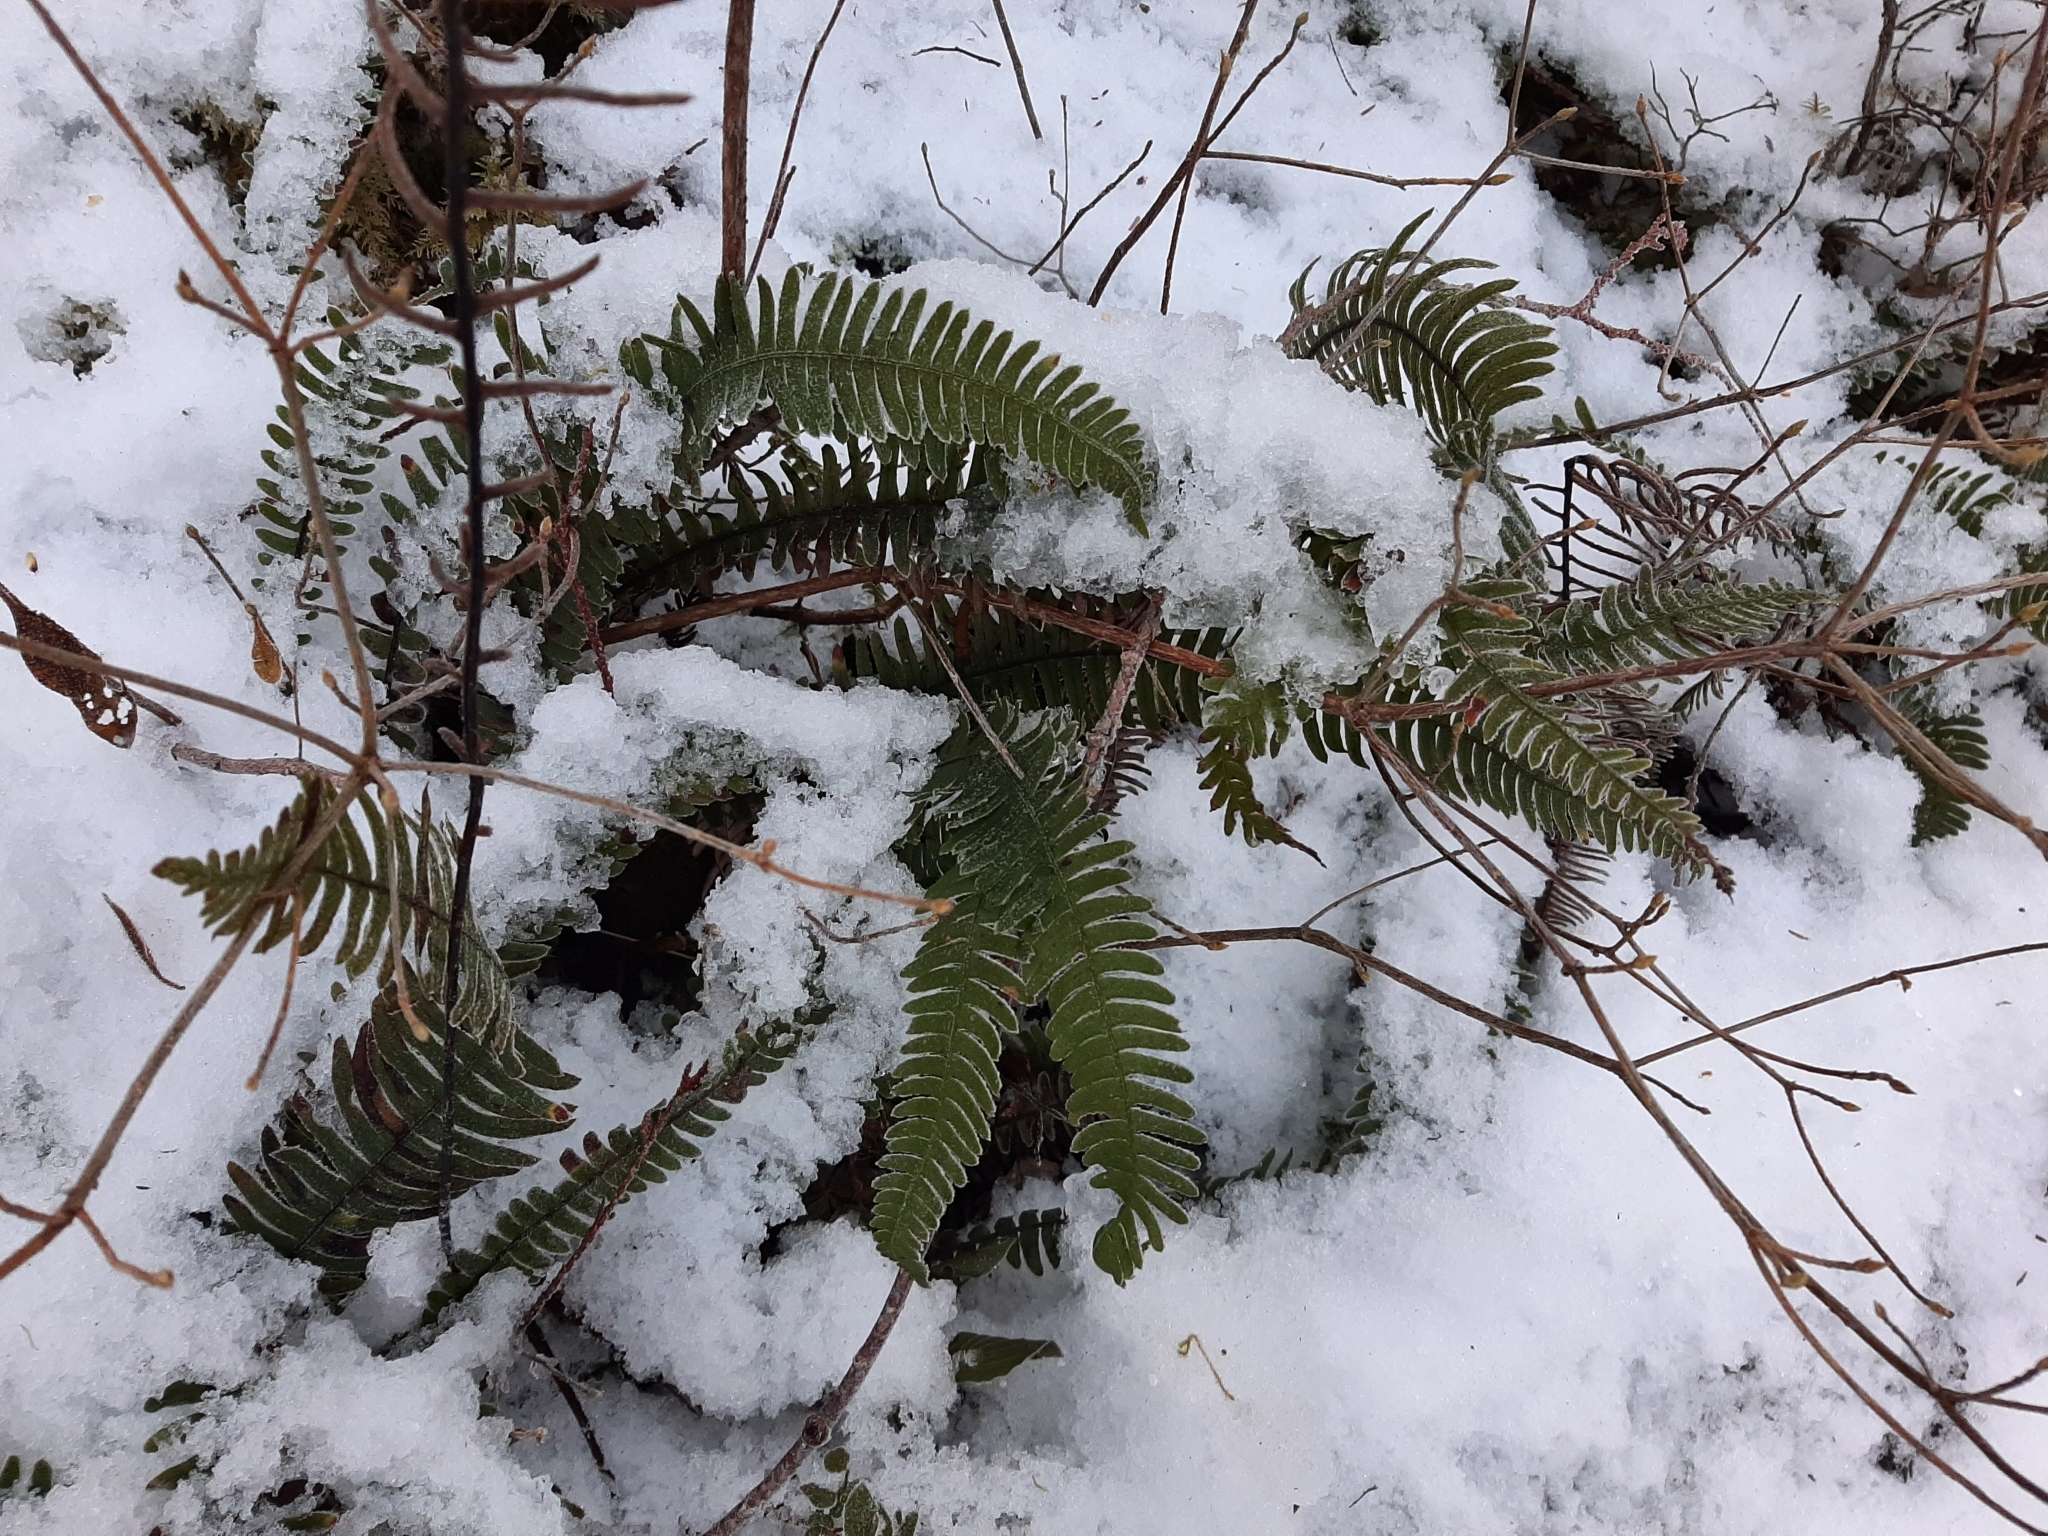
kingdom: Plantae
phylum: Tracheophyta
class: Polypodiopsida
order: Polypodiales
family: Blechnaceae
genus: Struthiopteris
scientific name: Struthiopteris spicant
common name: Deer fern
